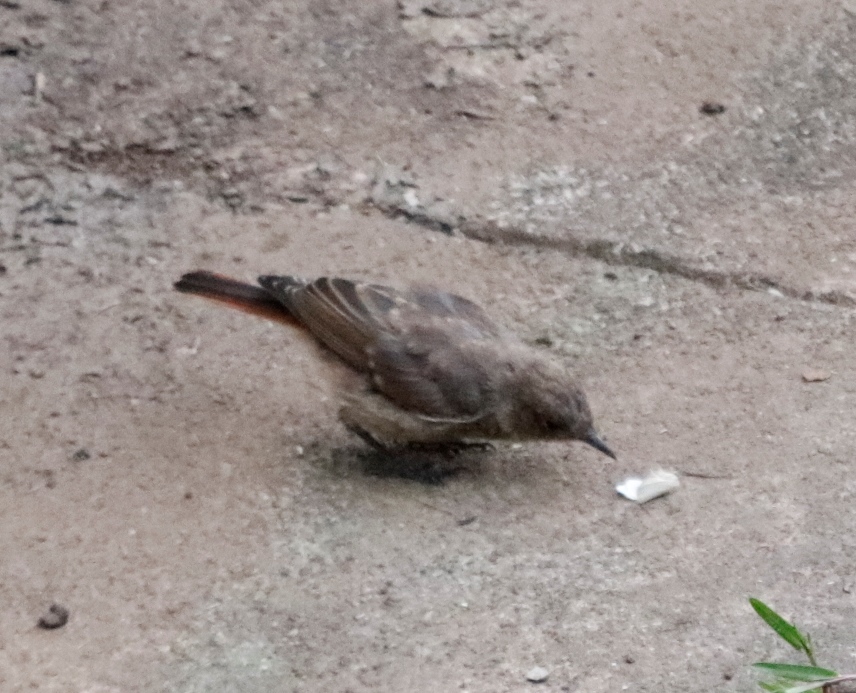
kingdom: Animalia
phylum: Chordata
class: Aves
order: Passeriformes
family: Muscicapidae
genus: Oenanthe
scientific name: Oenanthe familiaris
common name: Familiar chat
